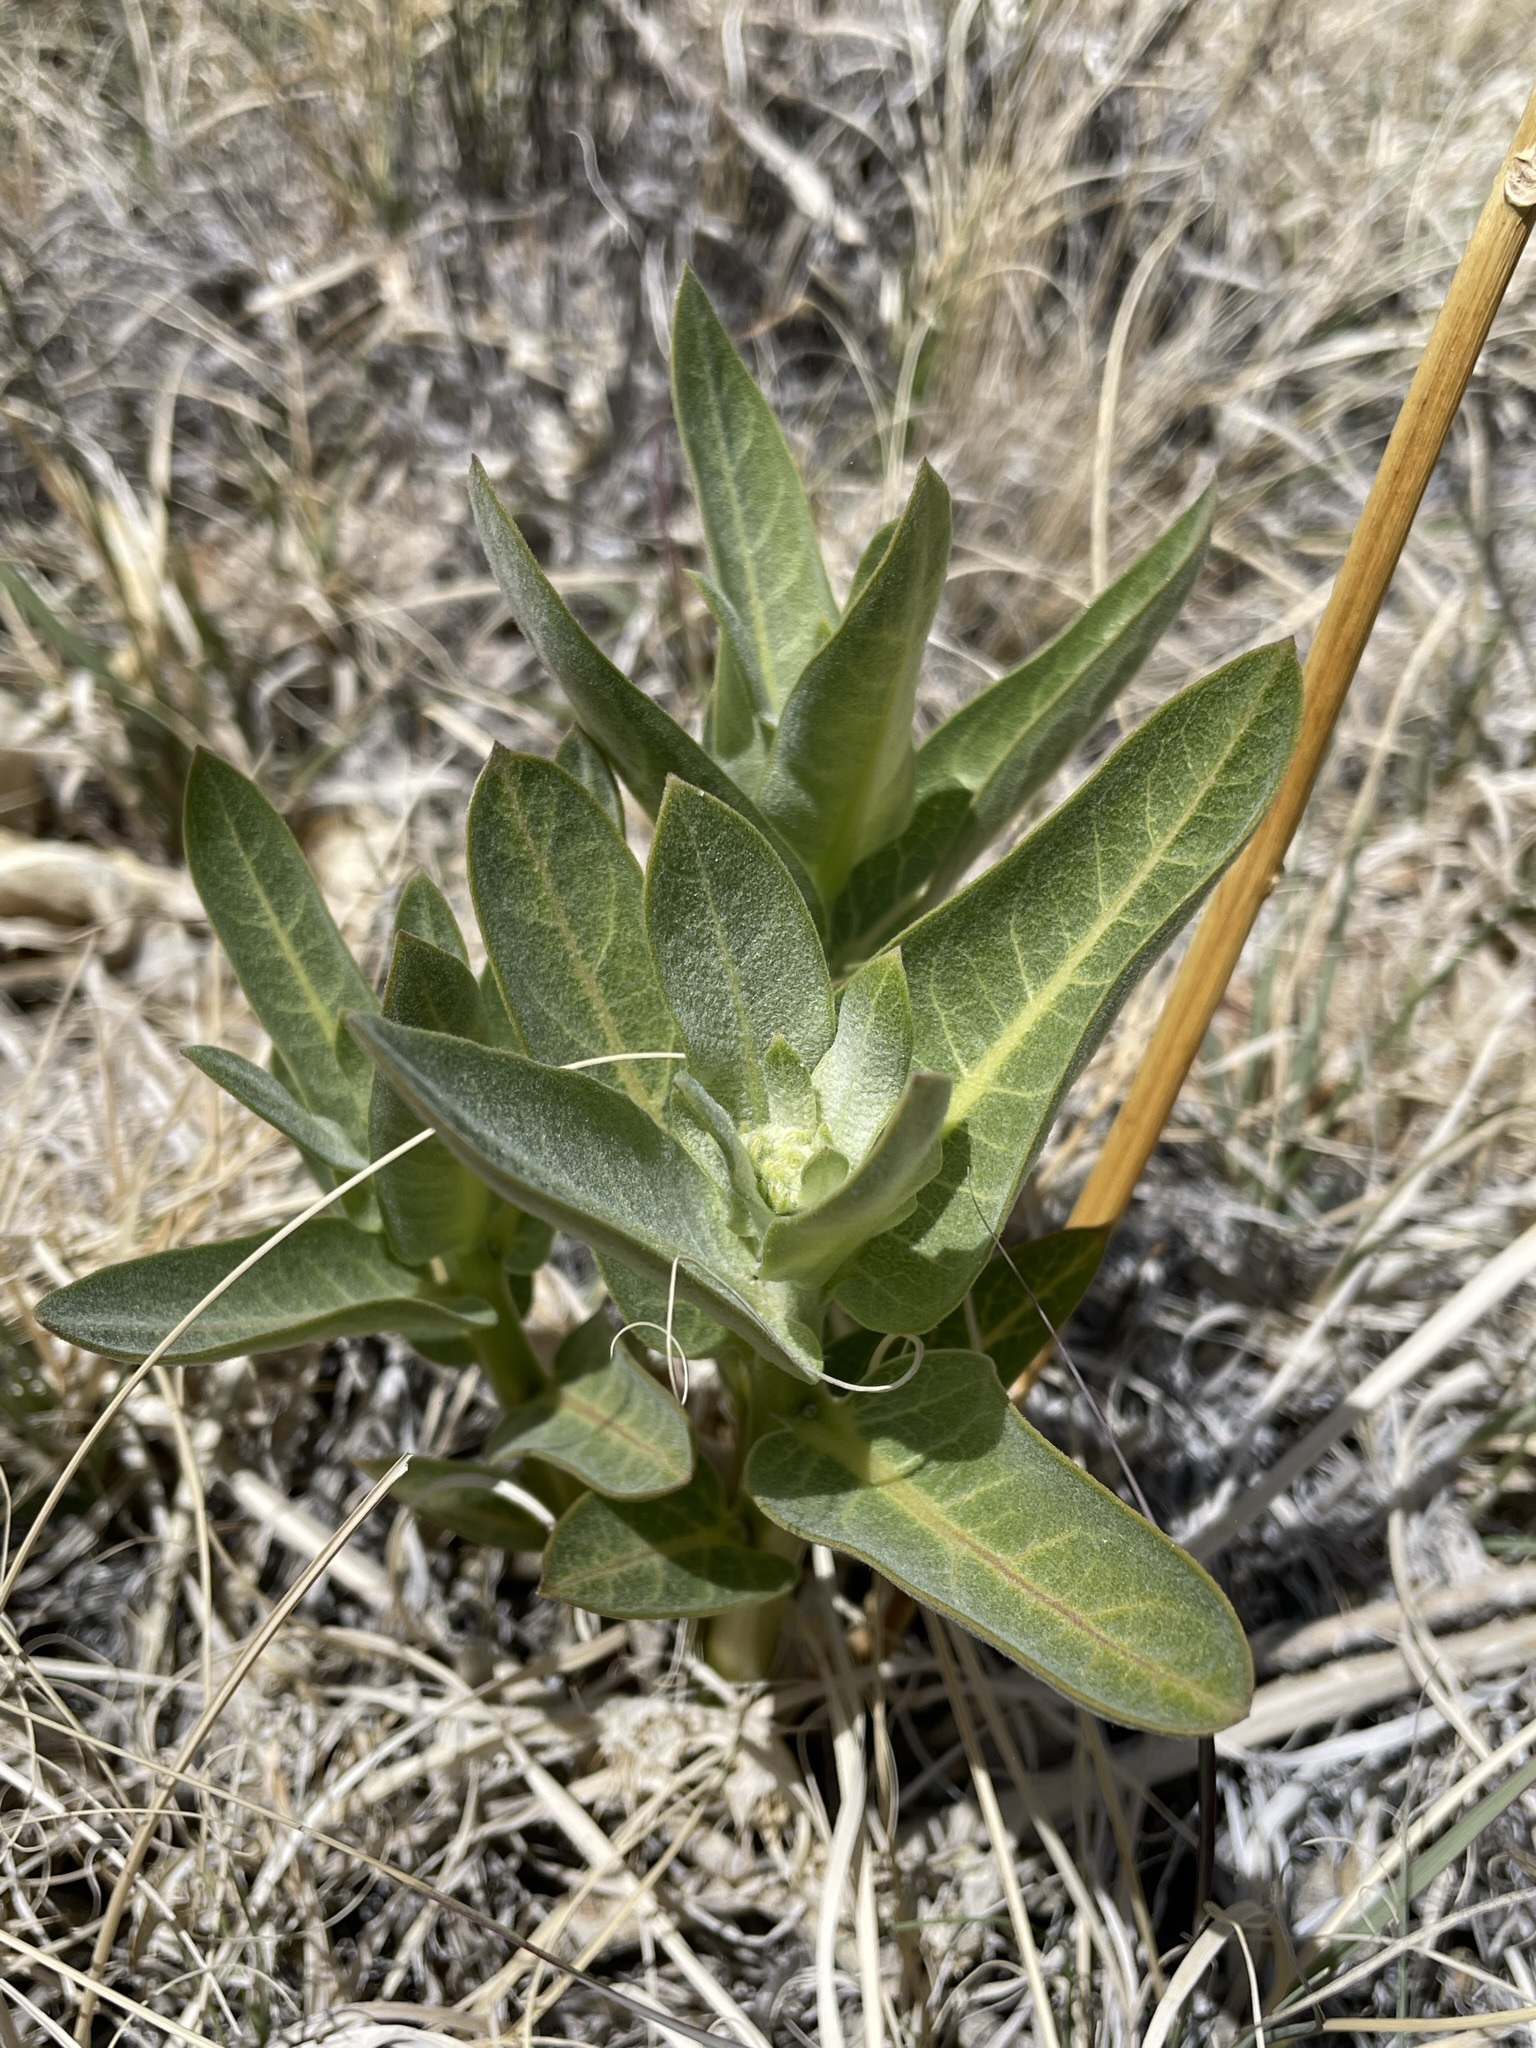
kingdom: Plantae
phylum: Tracheophyta
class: Magnoliopsida
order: Gentianales
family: Apocynaceae
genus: Asclepias
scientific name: Asclepias speciosa
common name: Showy milkweed
